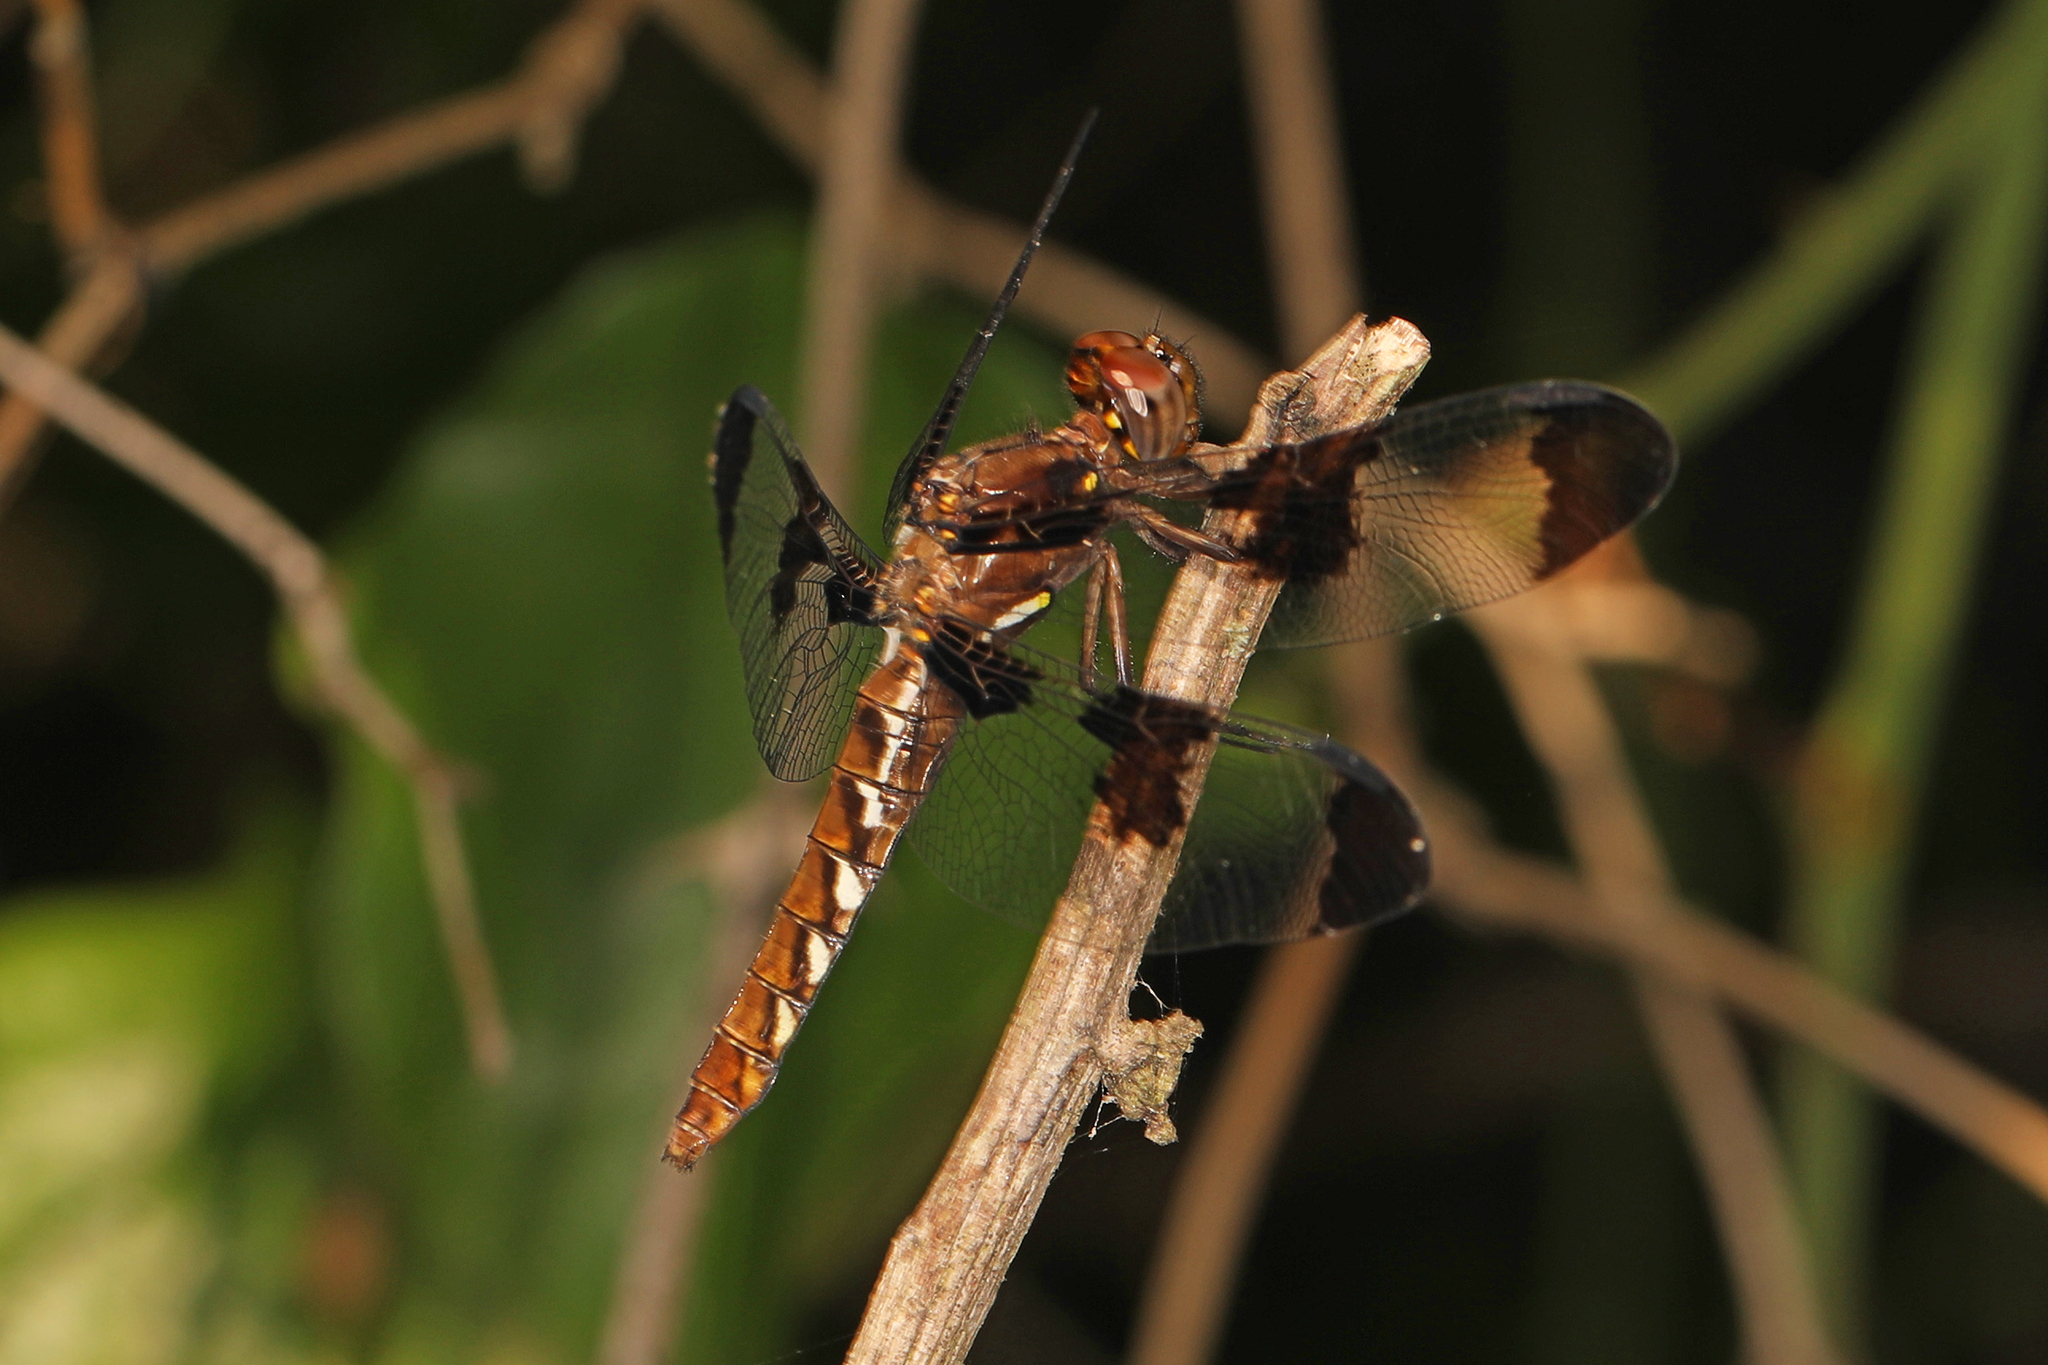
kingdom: Animalia
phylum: Arthropoda
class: Insecta
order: Odonata
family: Libellulidae
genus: Plathemis
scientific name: Plathemis lydia
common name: Common whitetail
